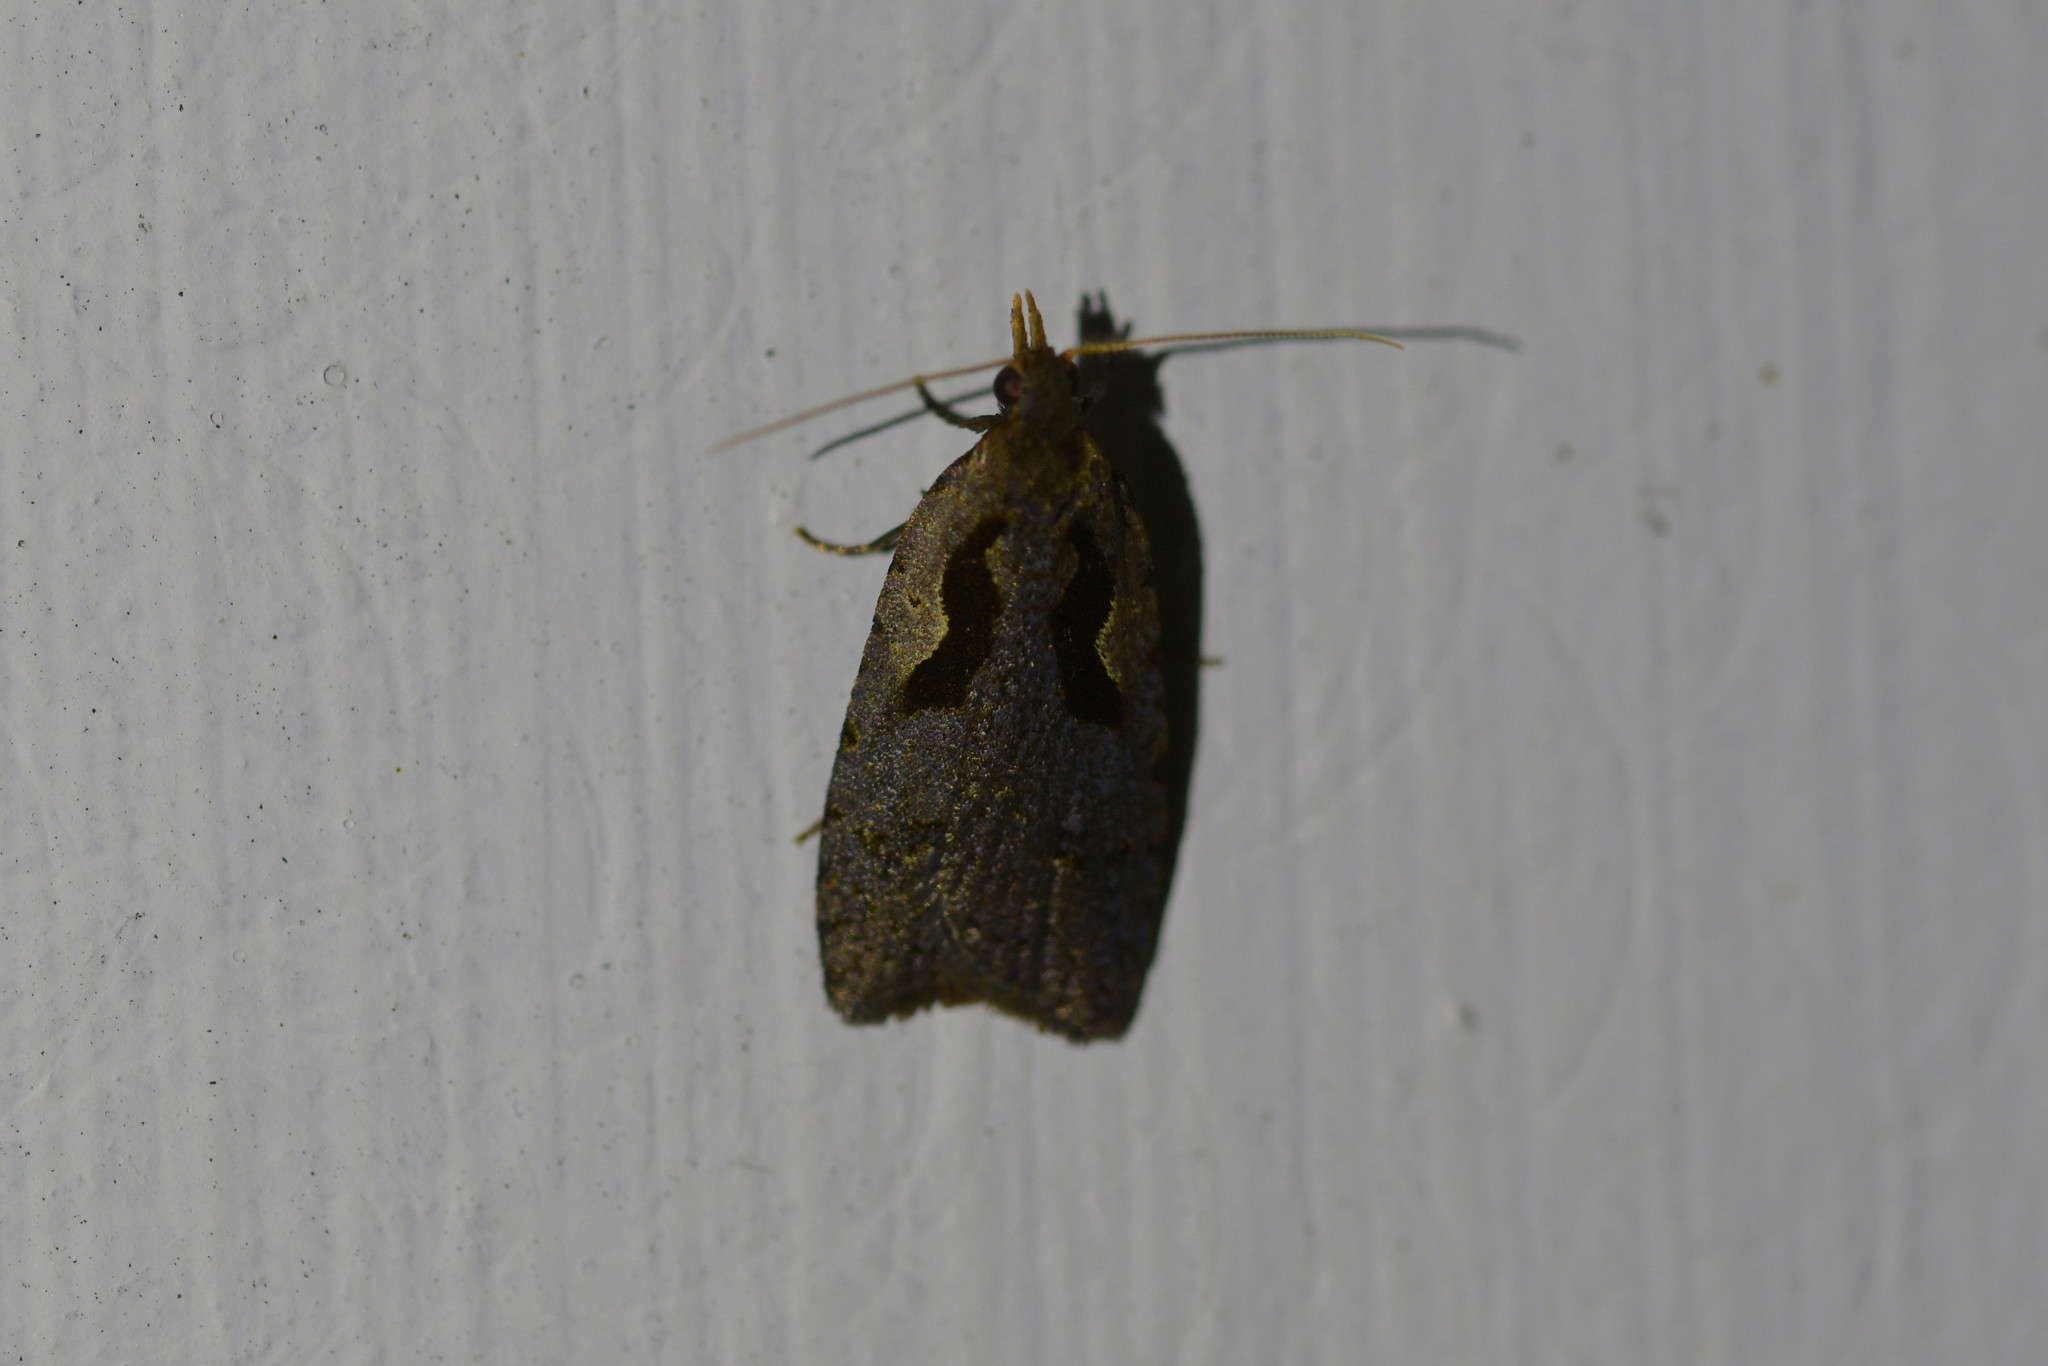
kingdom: Animalia
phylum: Arthropoda
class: Insecta
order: Lepidoptera
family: Tortricidae
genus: Cnephasia
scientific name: Cnephasia jactatana
